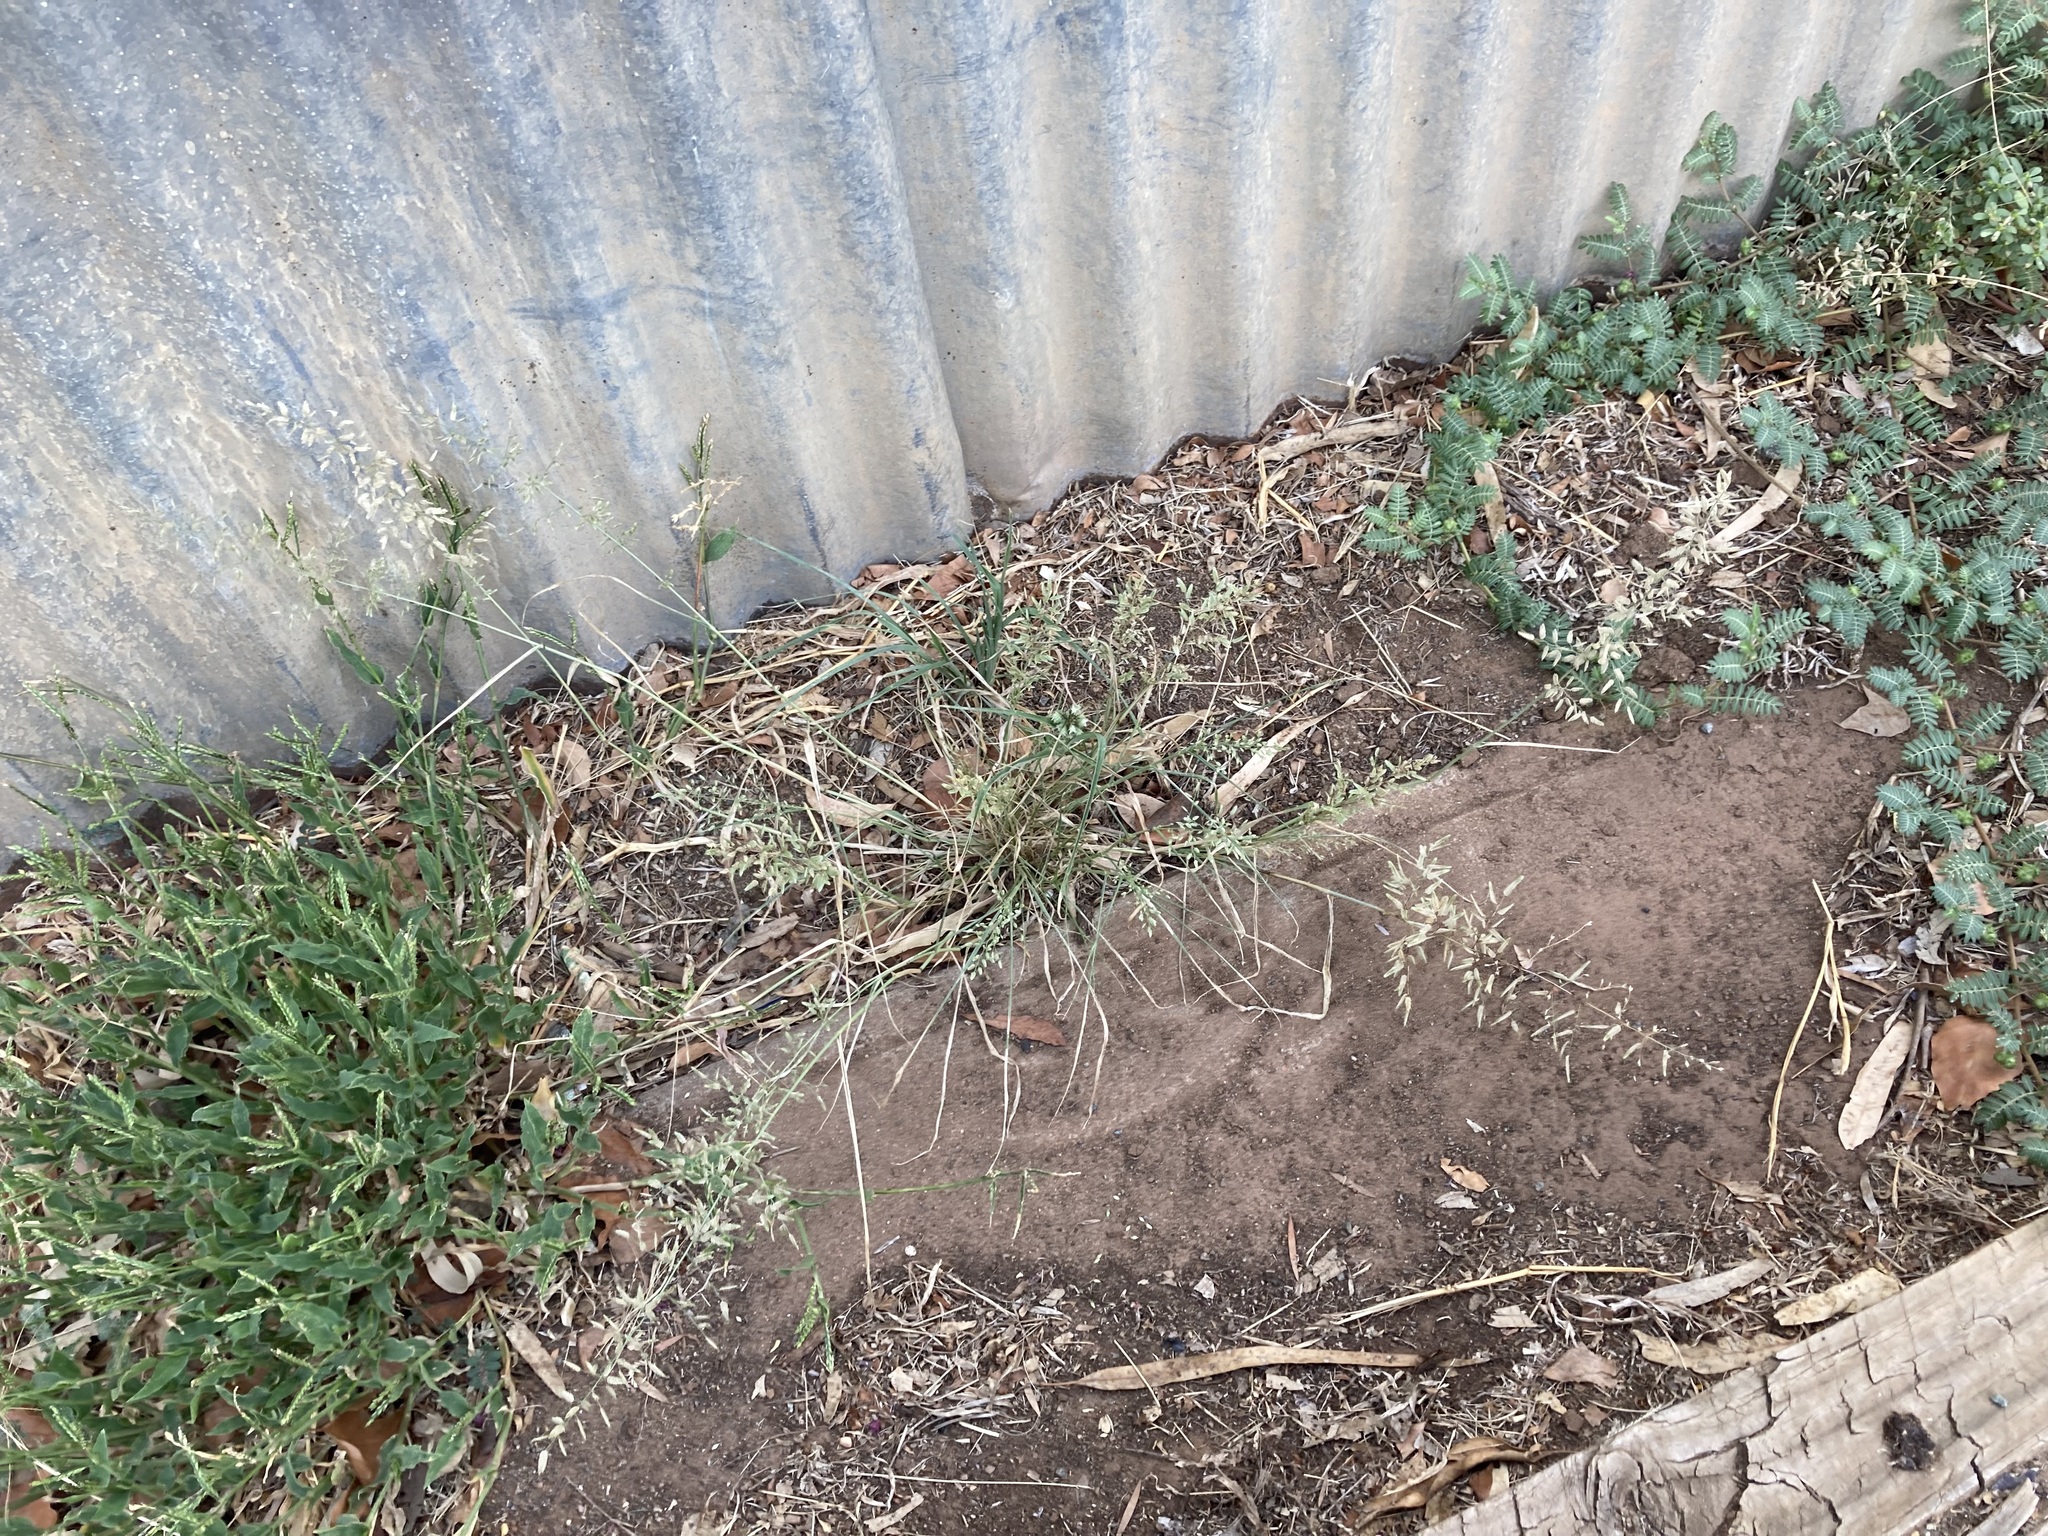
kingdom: Plantae
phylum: Tracheophyta
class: Liliopsida
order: Poales
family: Poaceae
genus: Eragrostis
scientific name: Eragrostis cilianensis
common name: Stinkgrass
